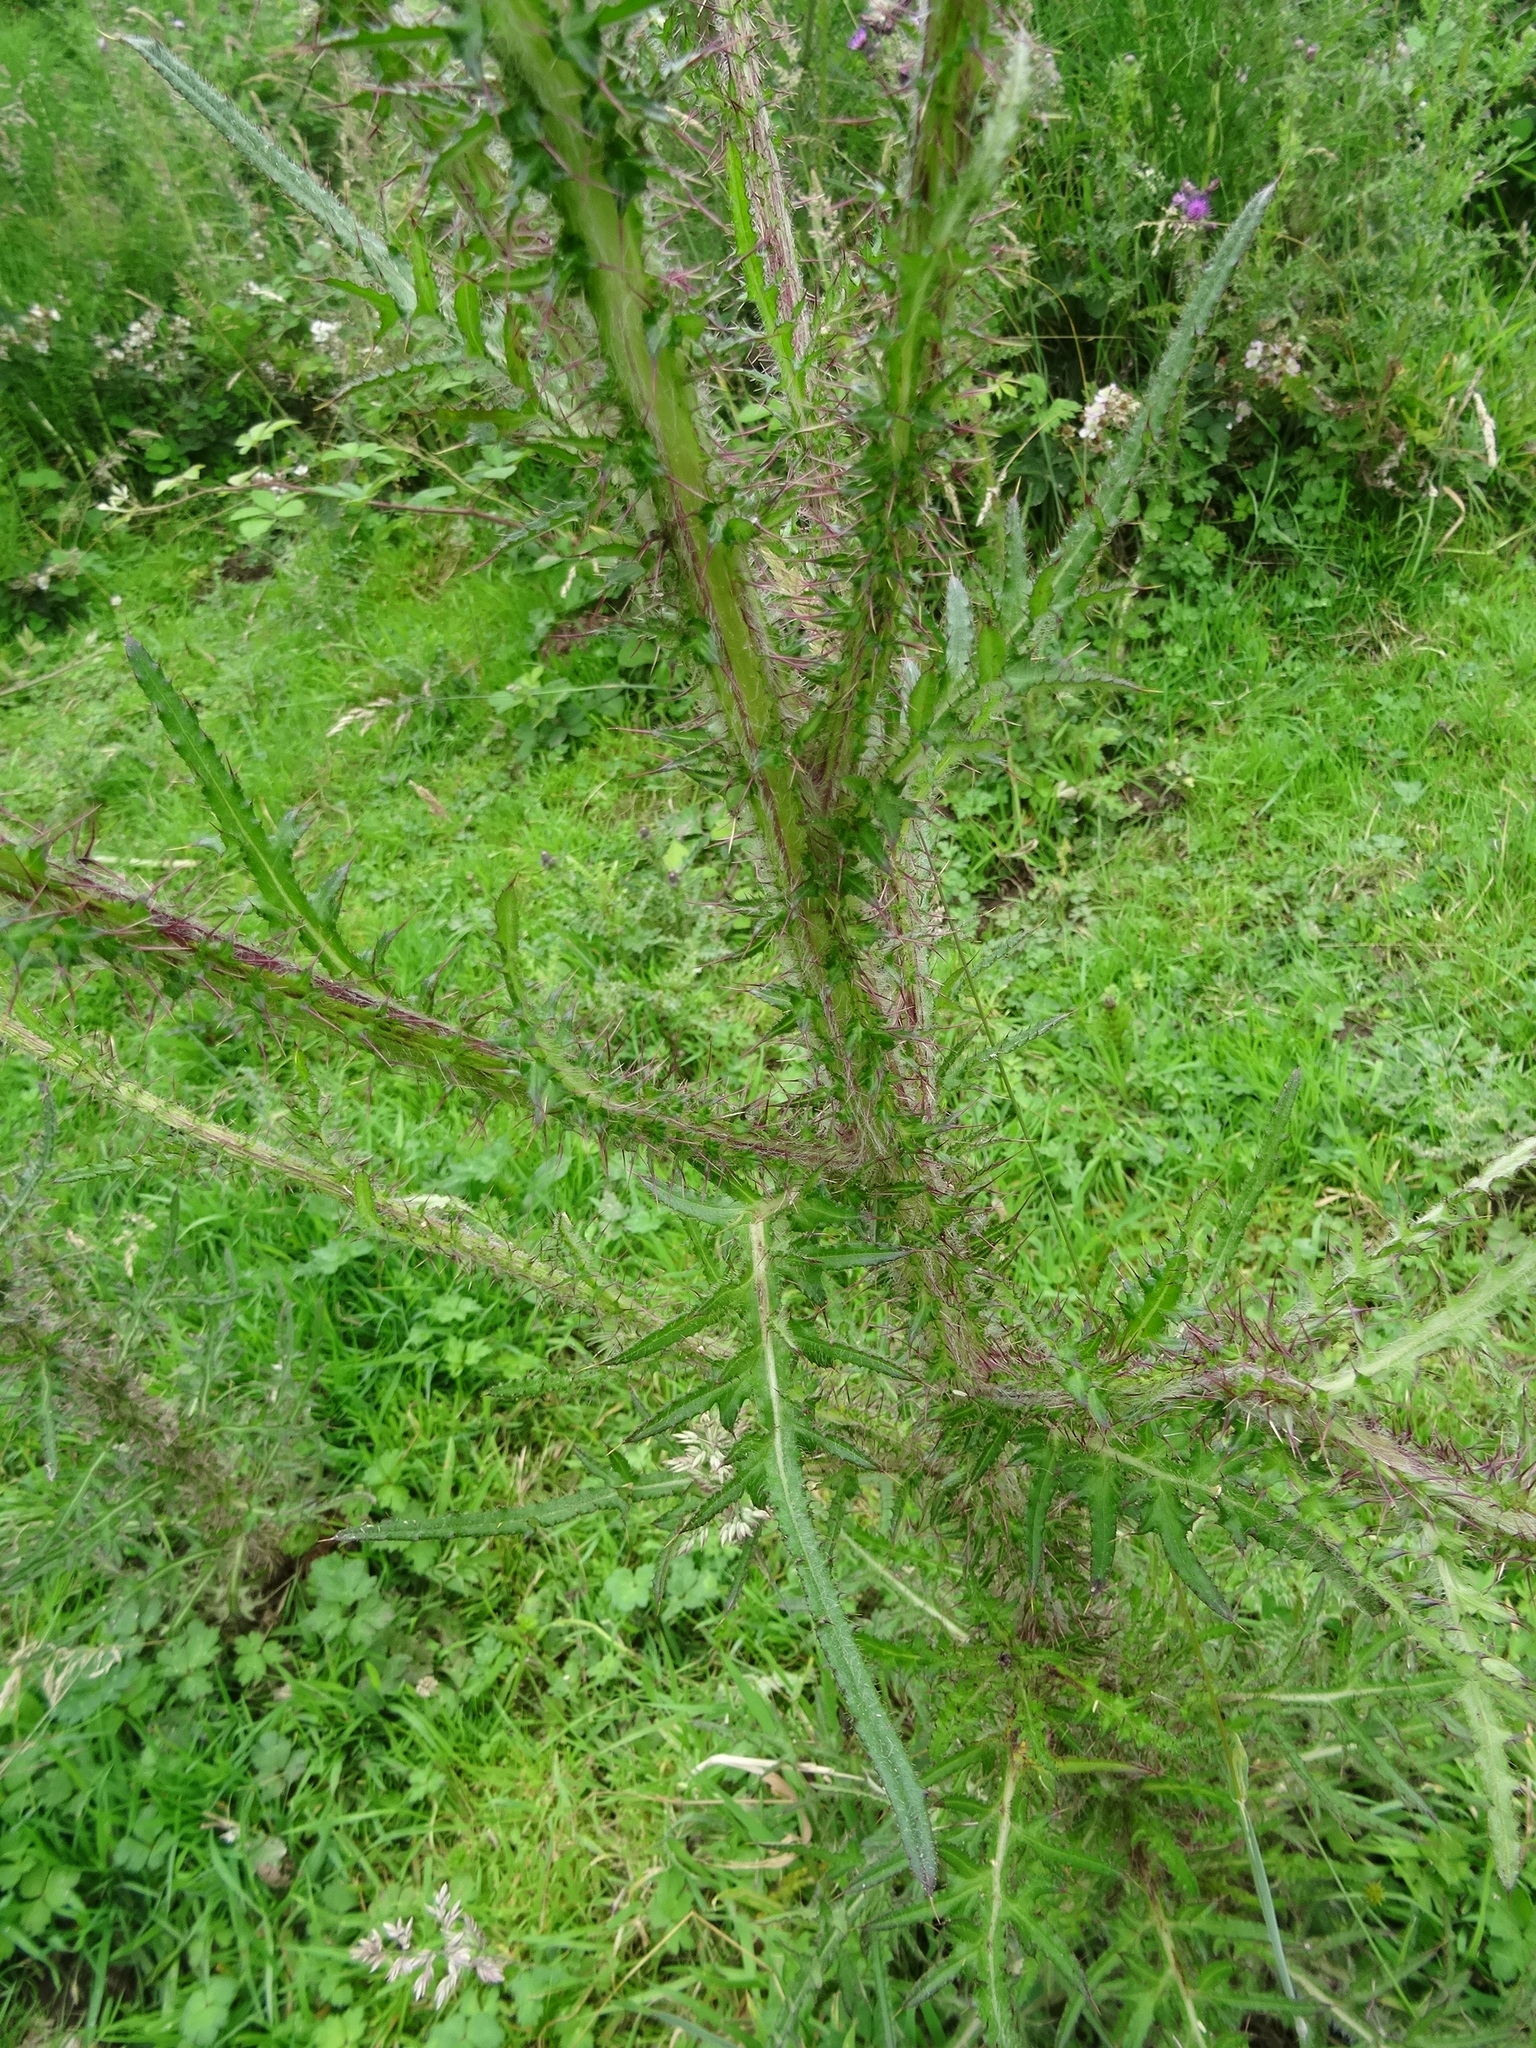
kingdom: Plantae
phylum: Tracheophyta
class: Magnoliopsida
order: Asterales
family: Asteraceae
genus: Cirsium
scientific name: Cirsium palustre
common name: Marsh thistle
